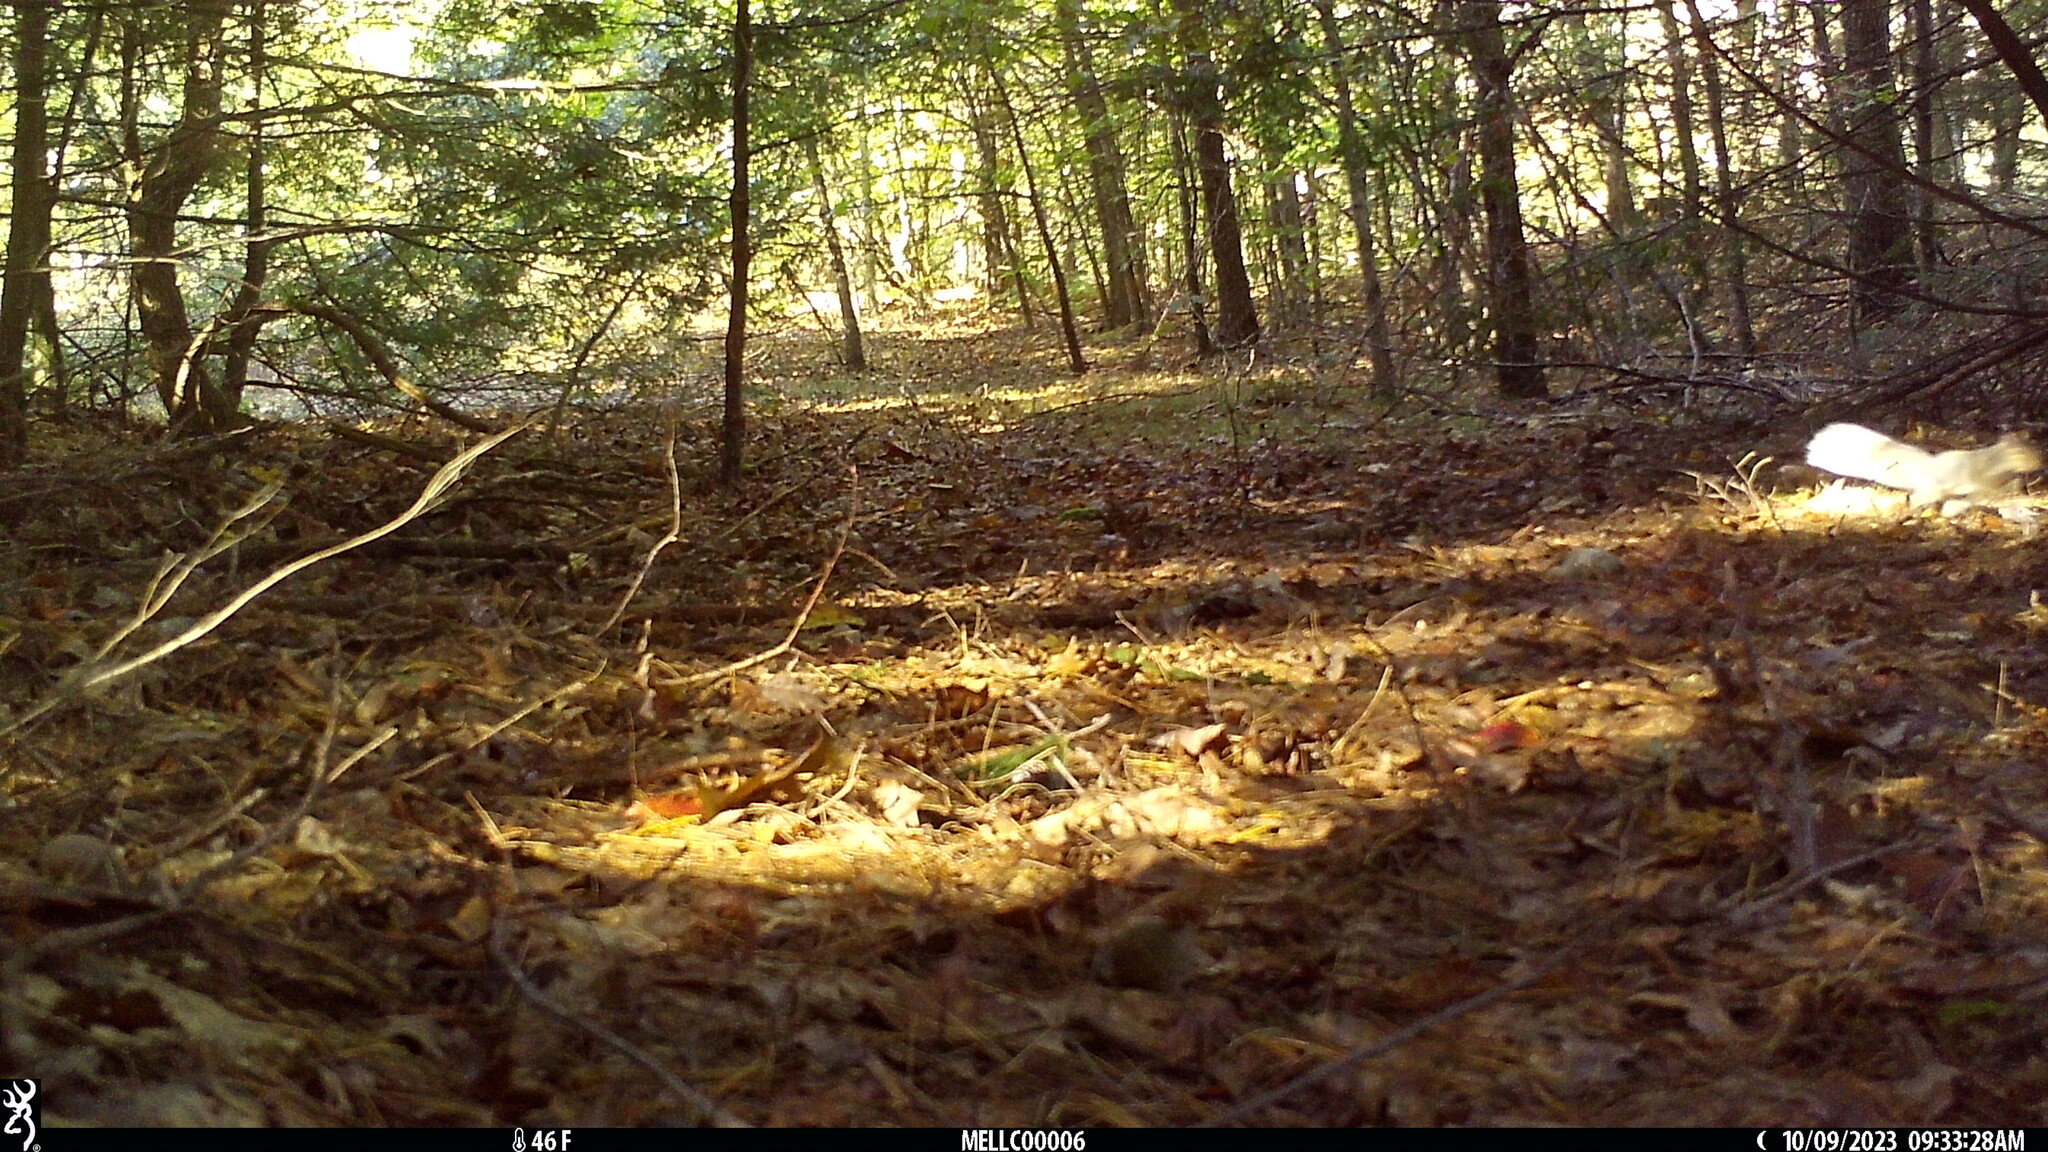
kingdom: Animalia
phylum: Chordata
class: Mammalia
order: Rodentia
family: Sciuridae
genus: Sciurus
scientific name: Sciurus carolinensis
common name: Eastern gray squirrel
